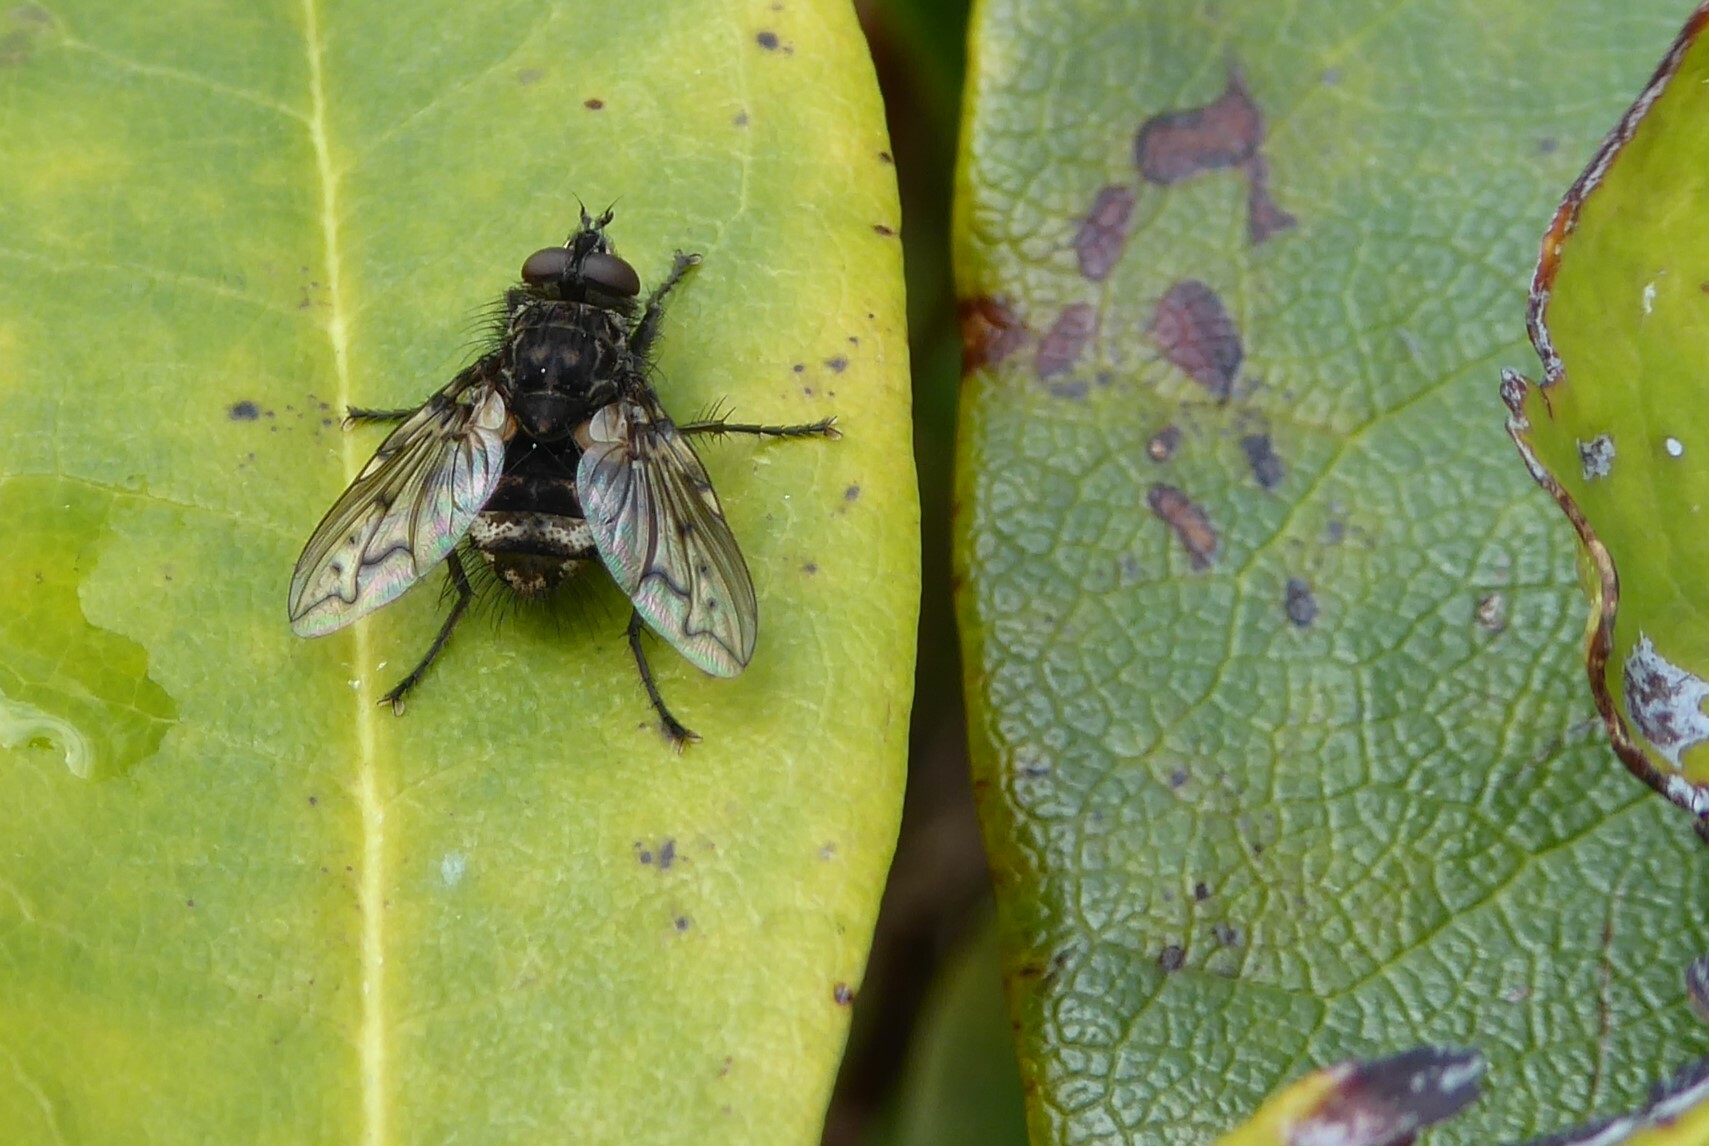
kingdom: Animalia
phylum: Arthropoda
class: Insecta
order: Diptera
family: Tachinidae
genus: Mallochomacquartia
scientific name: Mallochomacquartia vexata
